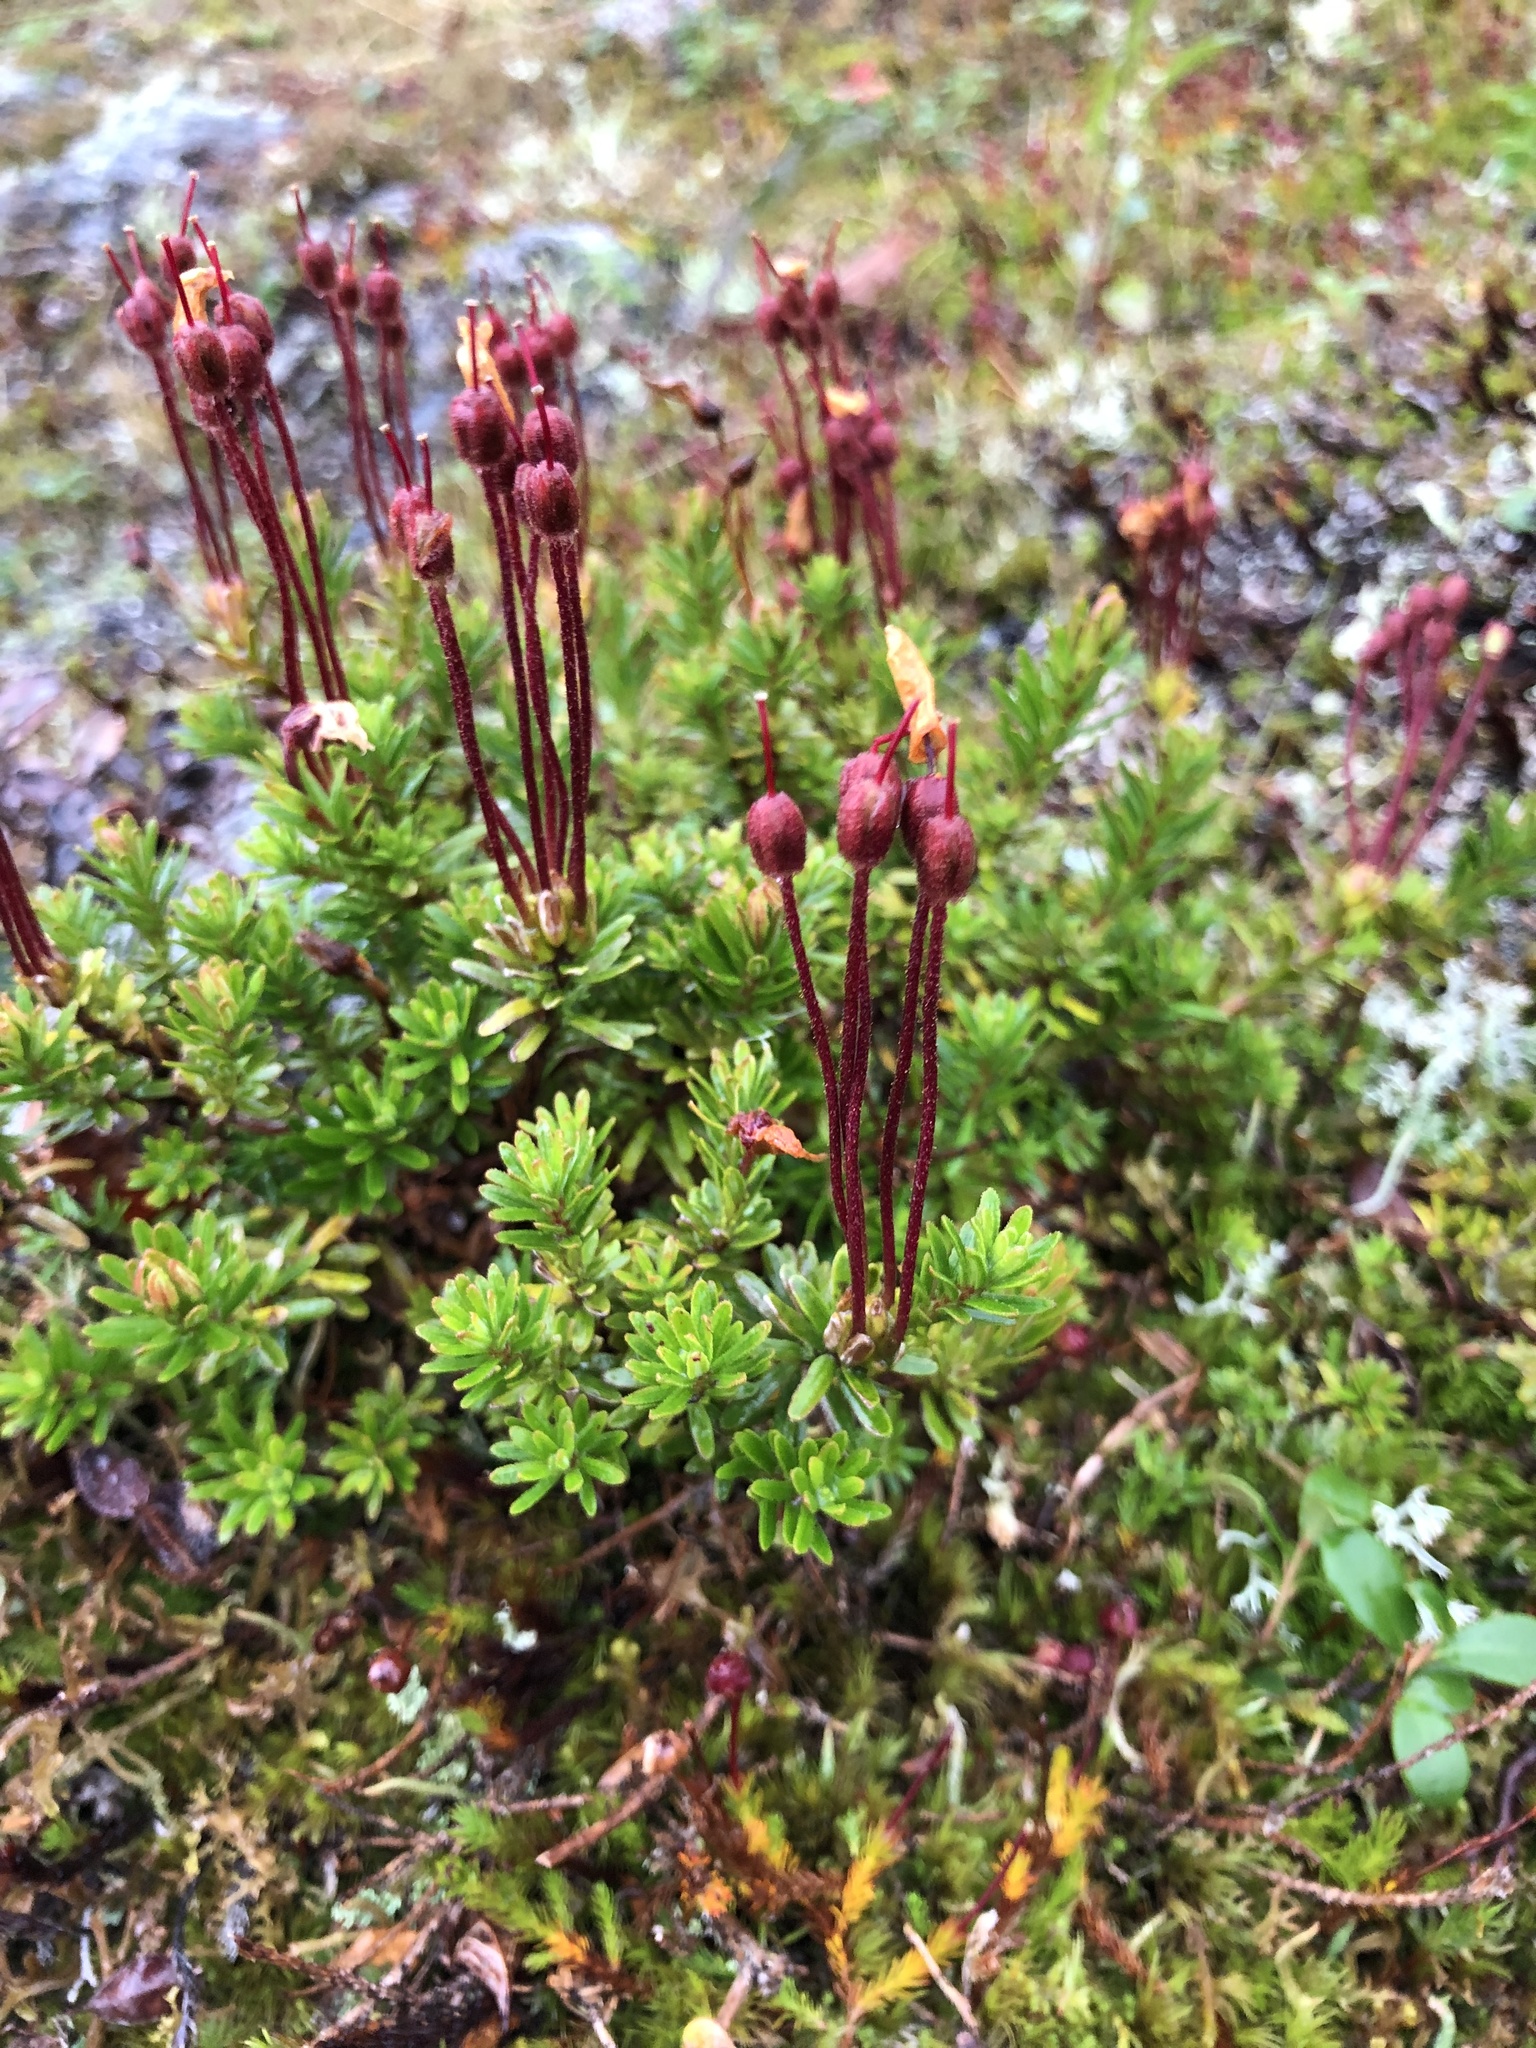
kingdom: Plantae
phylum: Tracheophyta
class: Magnoliopsida
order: Ericales
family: Ericaceae
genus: Phyllodoce
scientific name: Phyllodoce caerulea
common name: Blue heath
